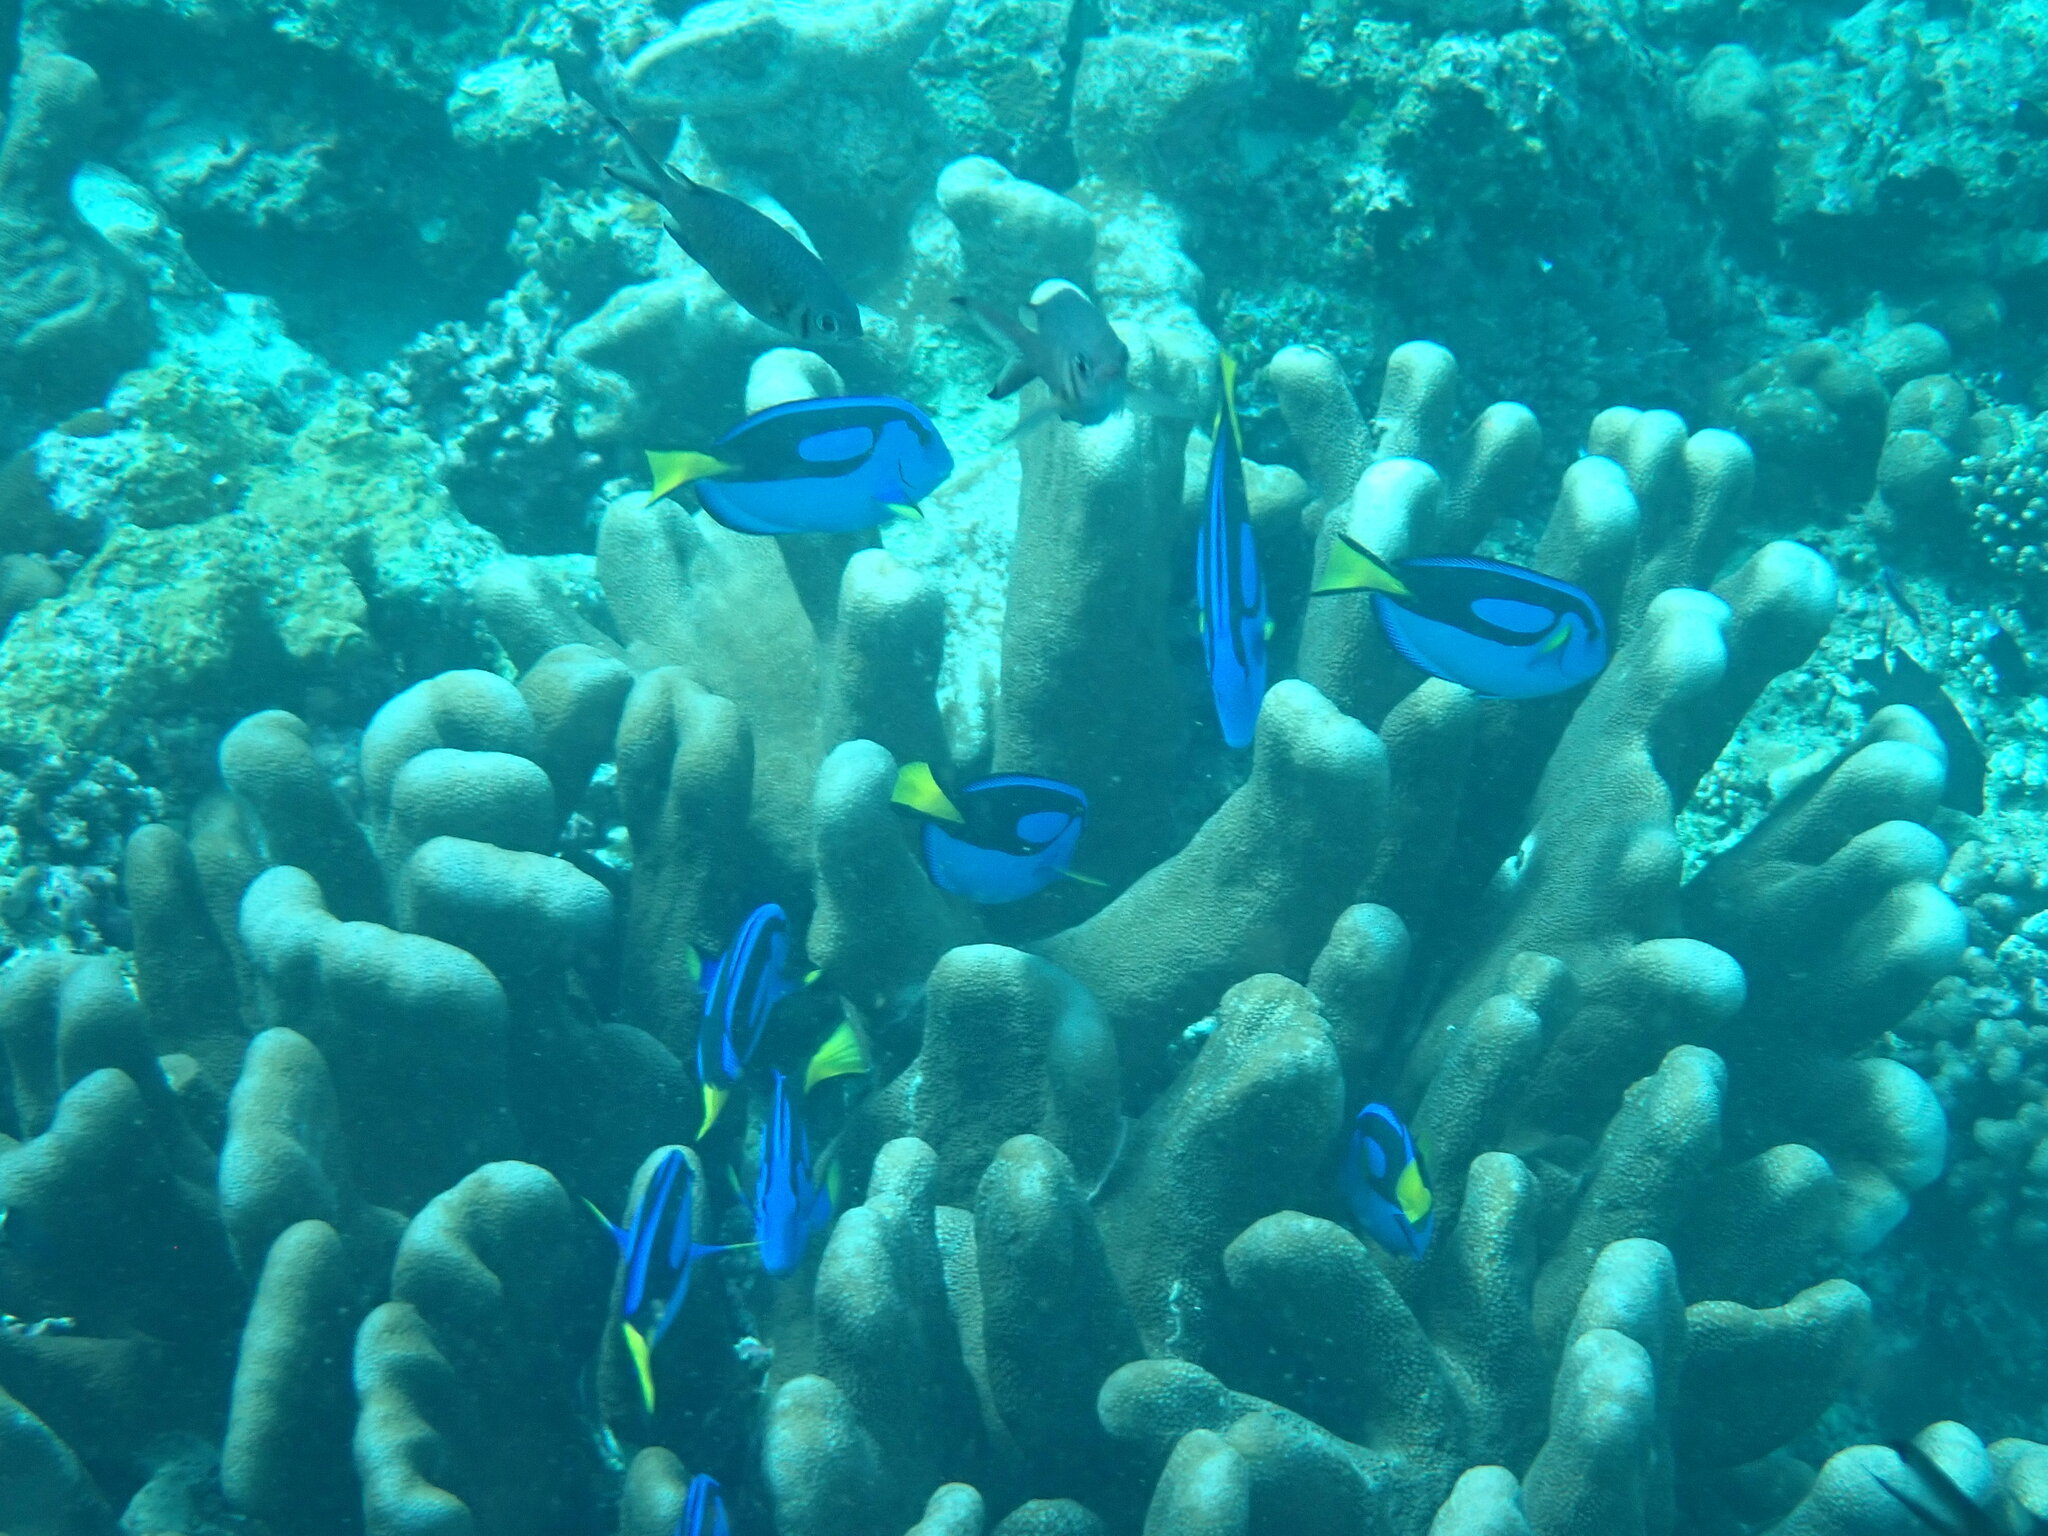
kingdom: Animalia
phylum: Chordata
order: Perciformes
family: Acanthuridae
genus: Paracanthurus
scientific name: Paracanthurus hepatus
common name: Palette surgeonfish
